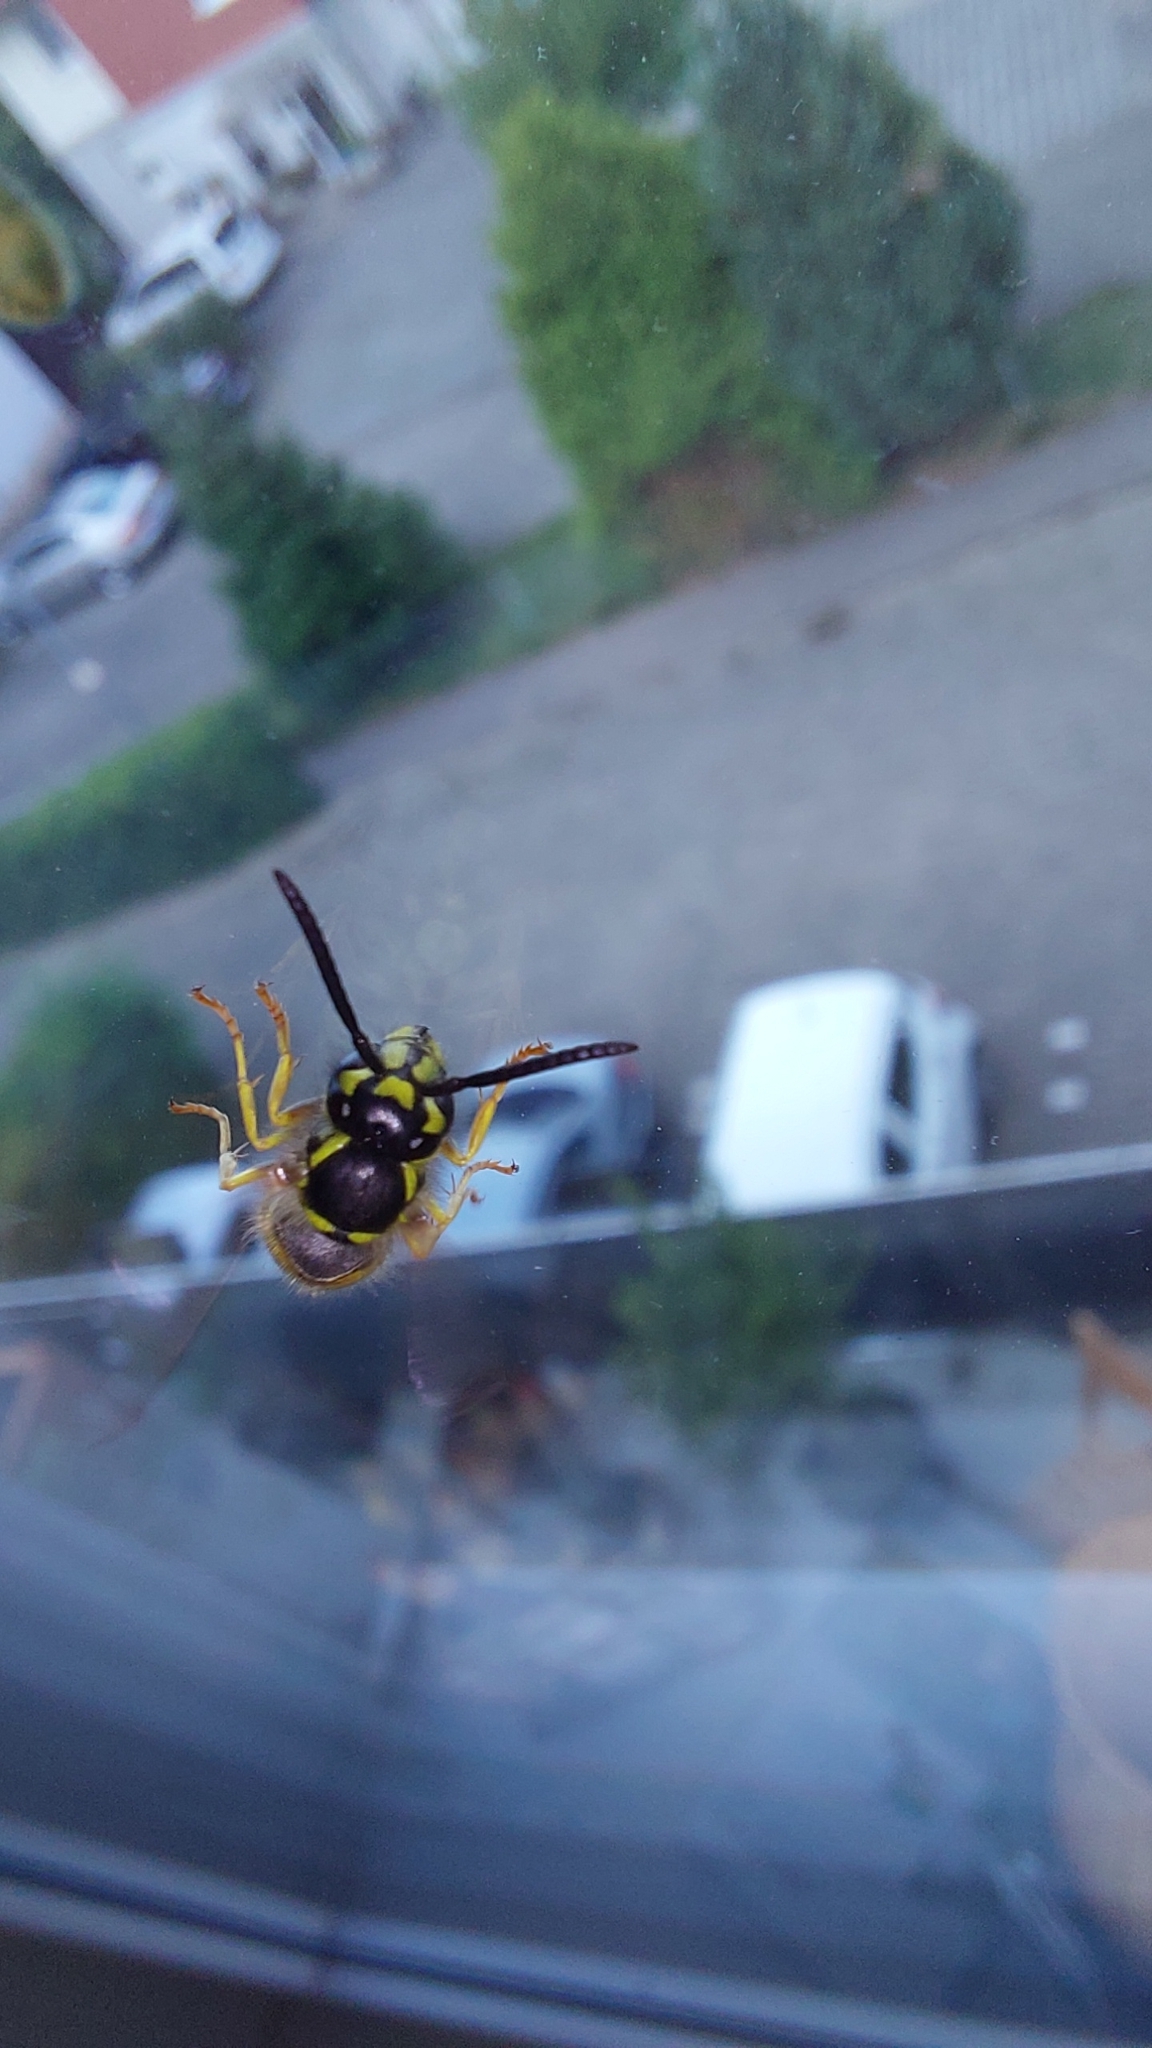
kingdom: Animalia
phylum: Arthropoda
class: Insecta
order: Hymenoptera
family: Vespidae
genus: Vespula
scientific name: Vespula vulgaris
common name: Common wasp
